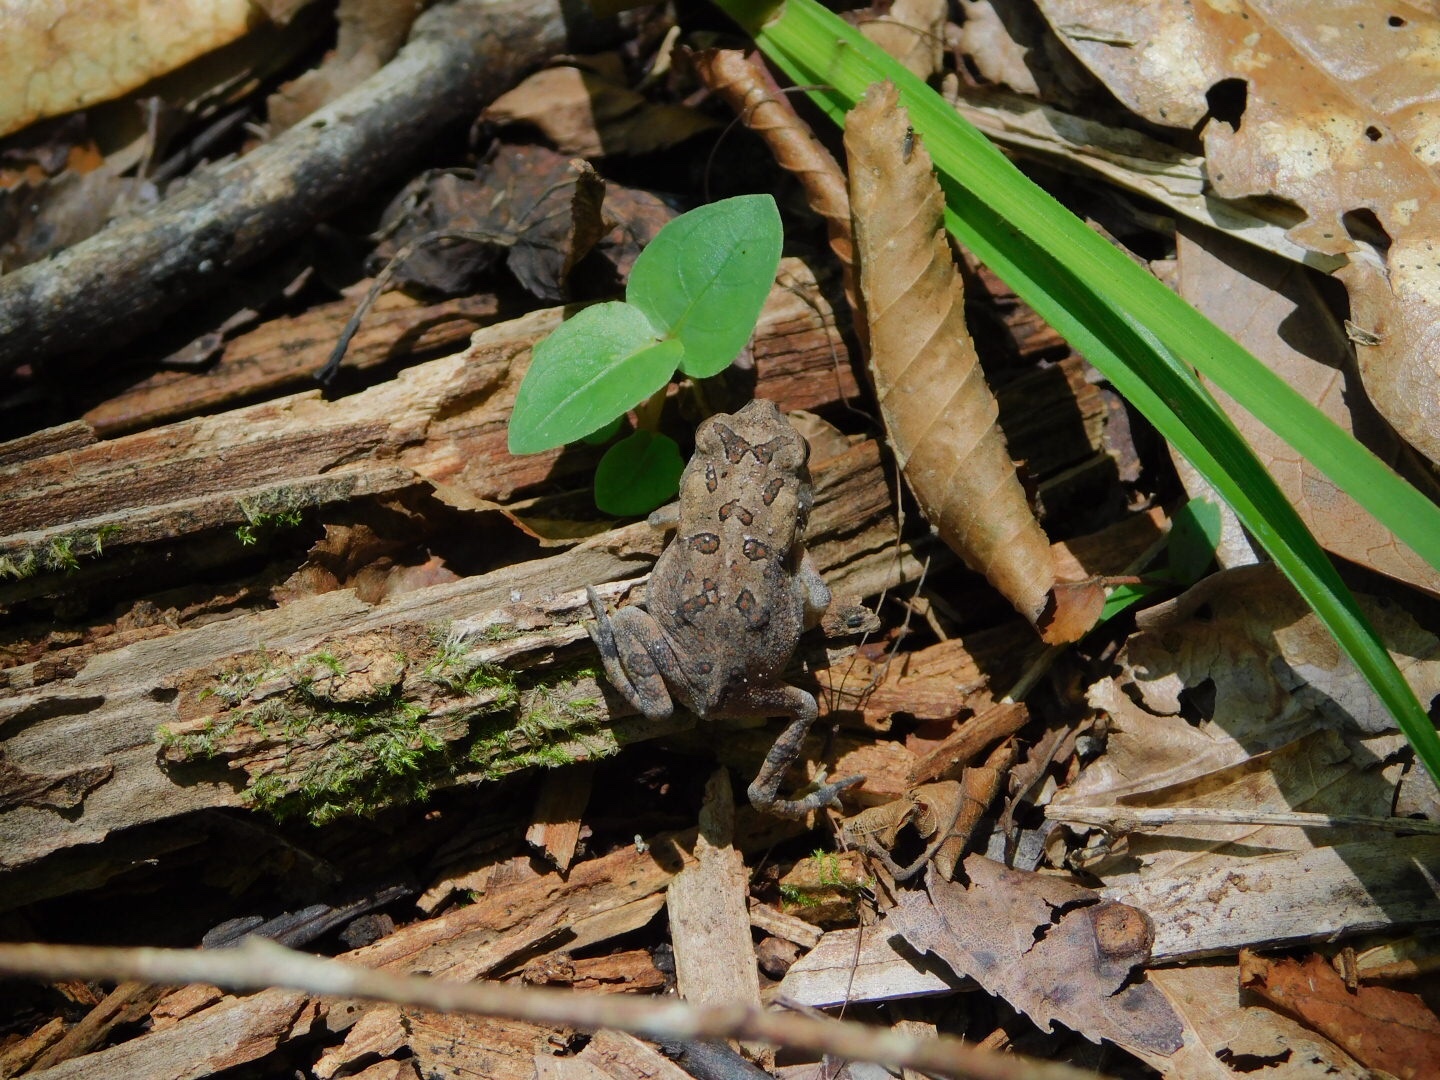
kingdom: Animalia
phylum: Chordata
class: Amphibia
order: Anura
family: Bufonidae
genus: Anaxyrus
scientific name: Anaxyrus terrestris
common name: Southern toad
